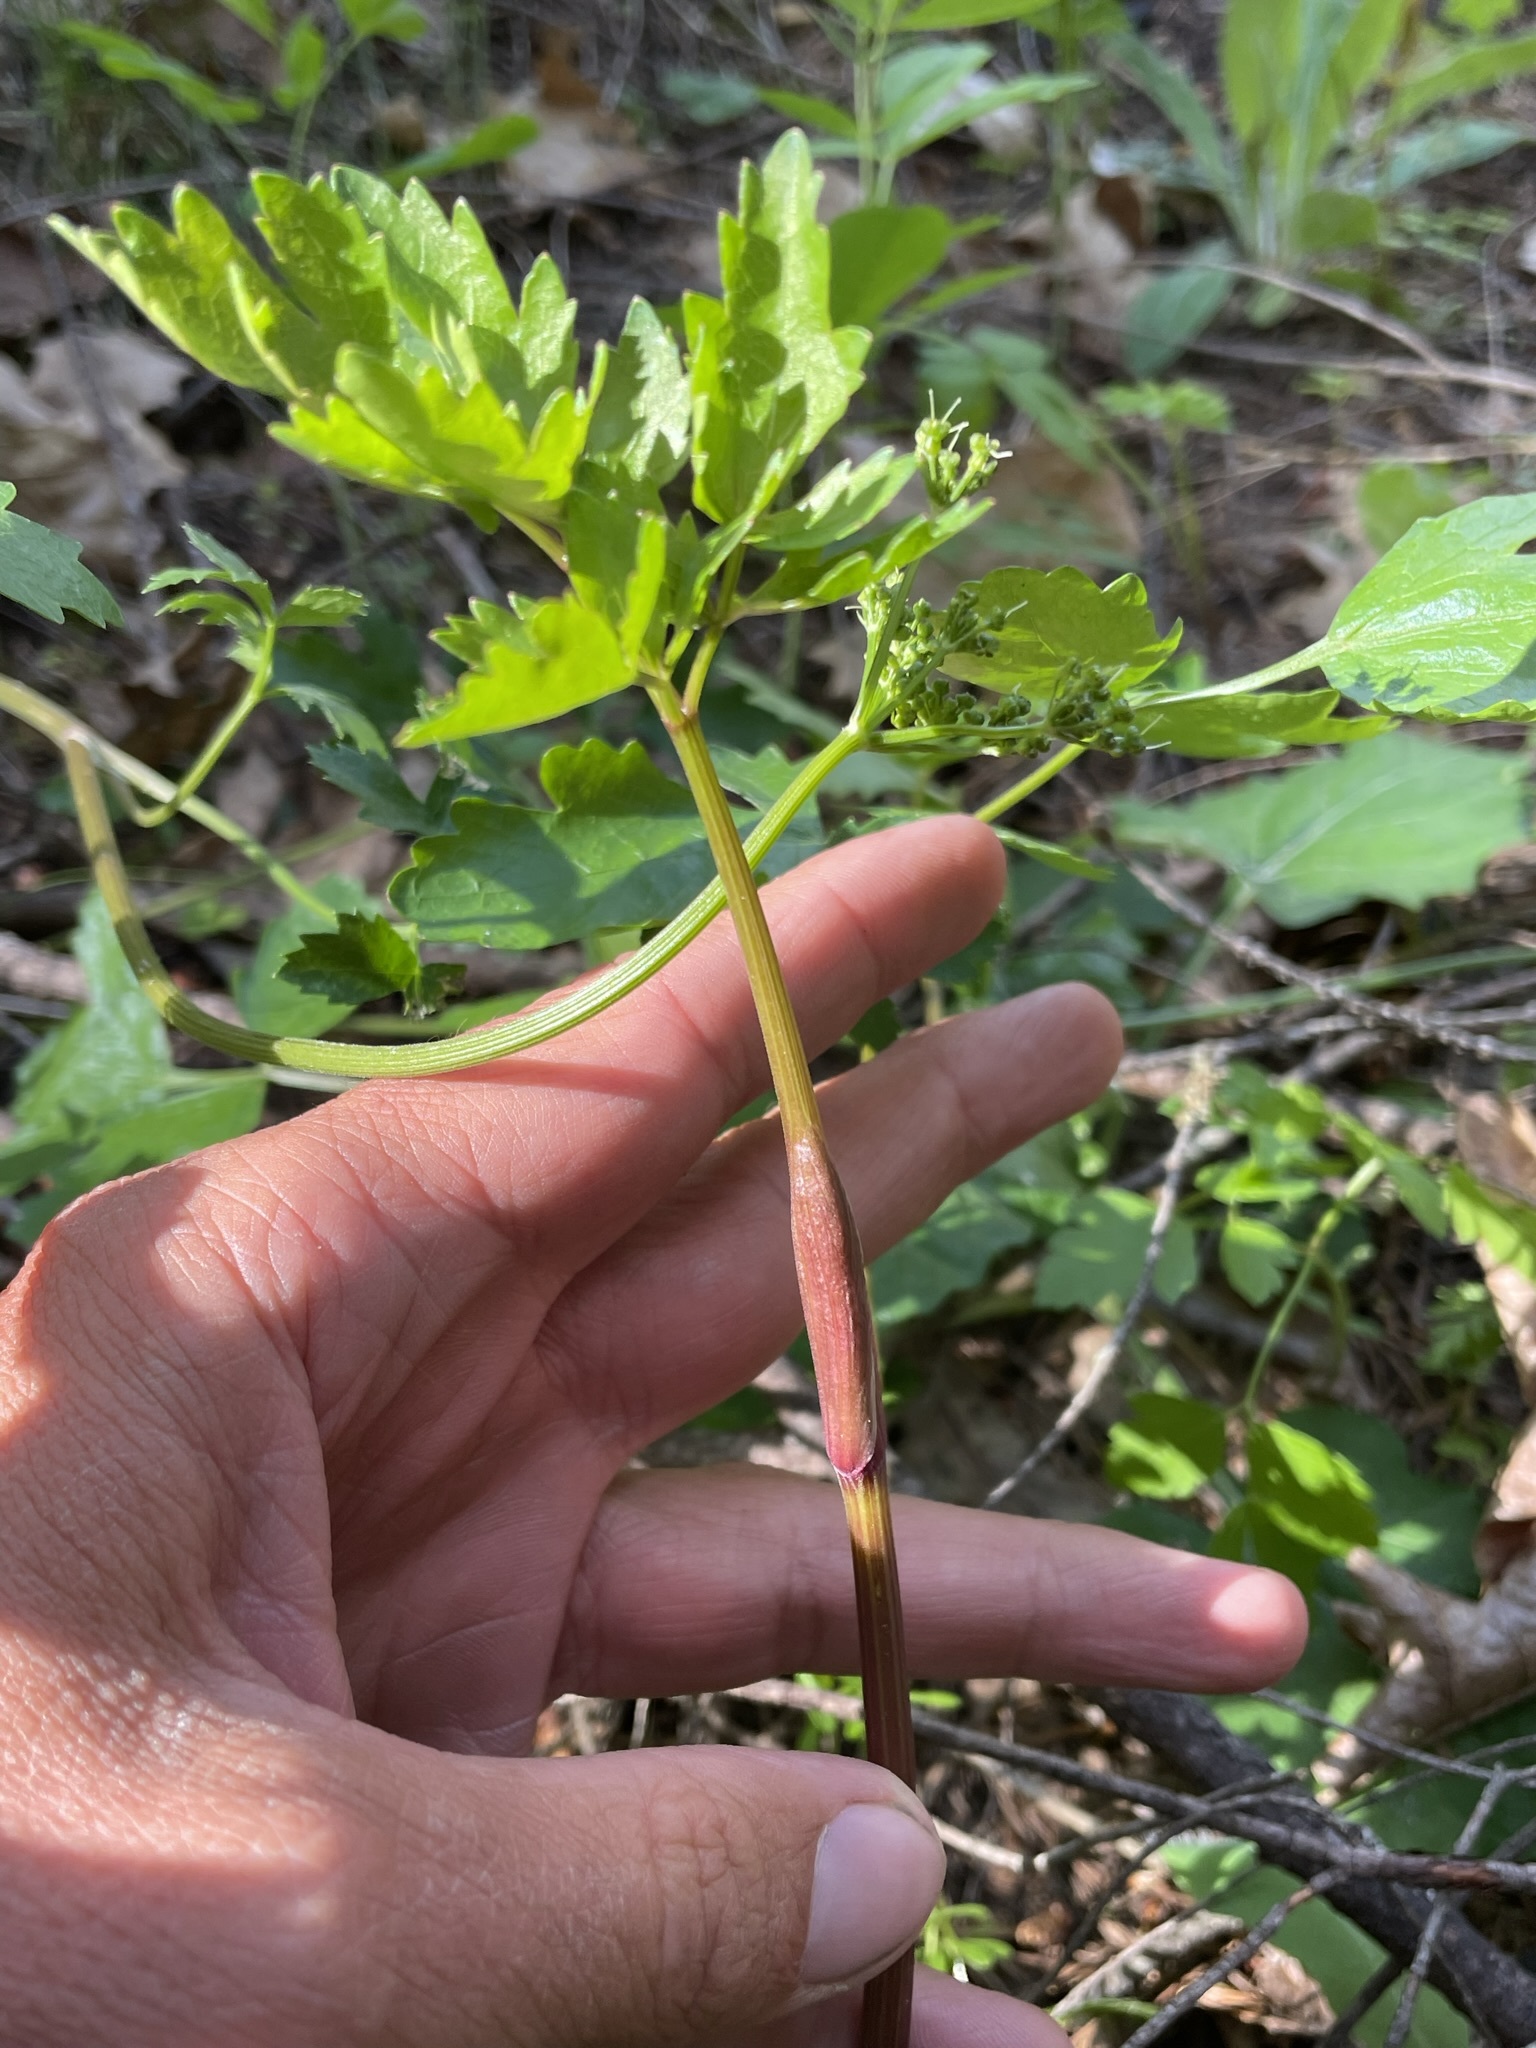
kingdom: Plantae
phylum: Tracheophyta
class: Magnoliopsida
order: Apiales
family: Apiaceae
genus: Tauschia
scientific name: Tauschia kelloggii
